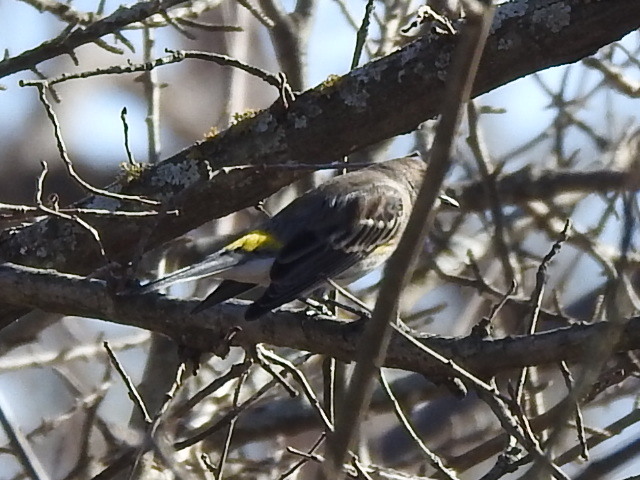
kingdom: Animalia
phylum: Chordata
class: Aves
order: Passeriformes
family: Parulidae
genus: Setophaga
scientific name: Setophaga coronata
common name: Myrtle warbler
